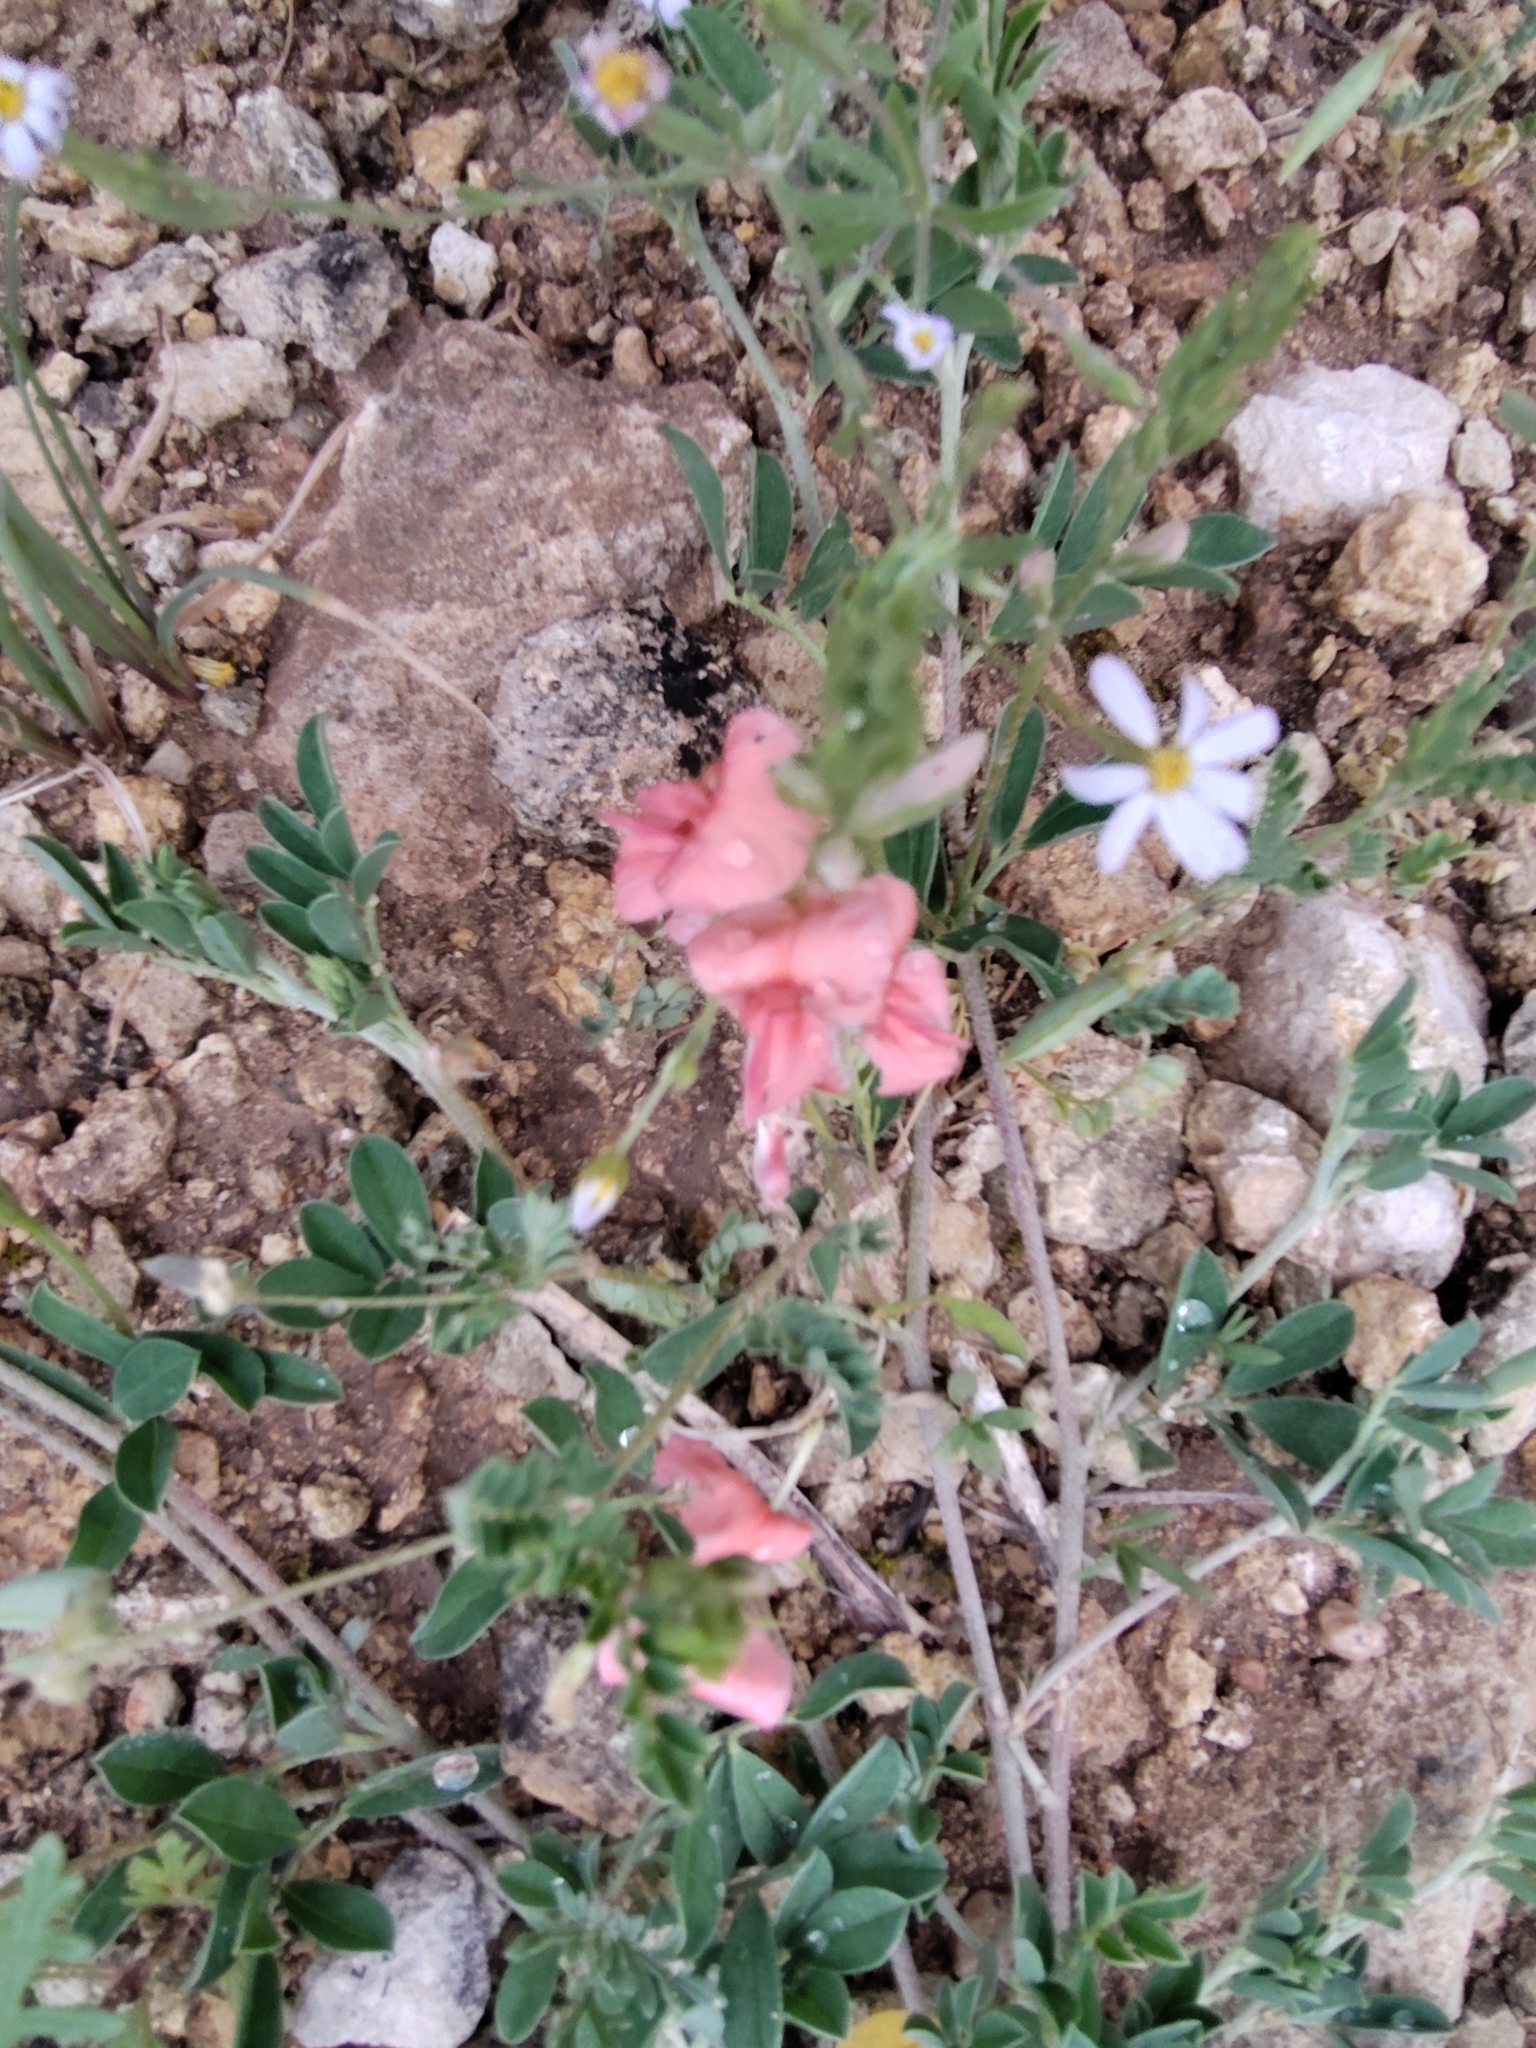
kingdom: Plantae
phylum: Tracheophyta
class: Magnoliopsida
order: Fabales
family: Fabaceae
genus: Indigofera
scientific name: Indigofera miniata
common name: Coast indigo
